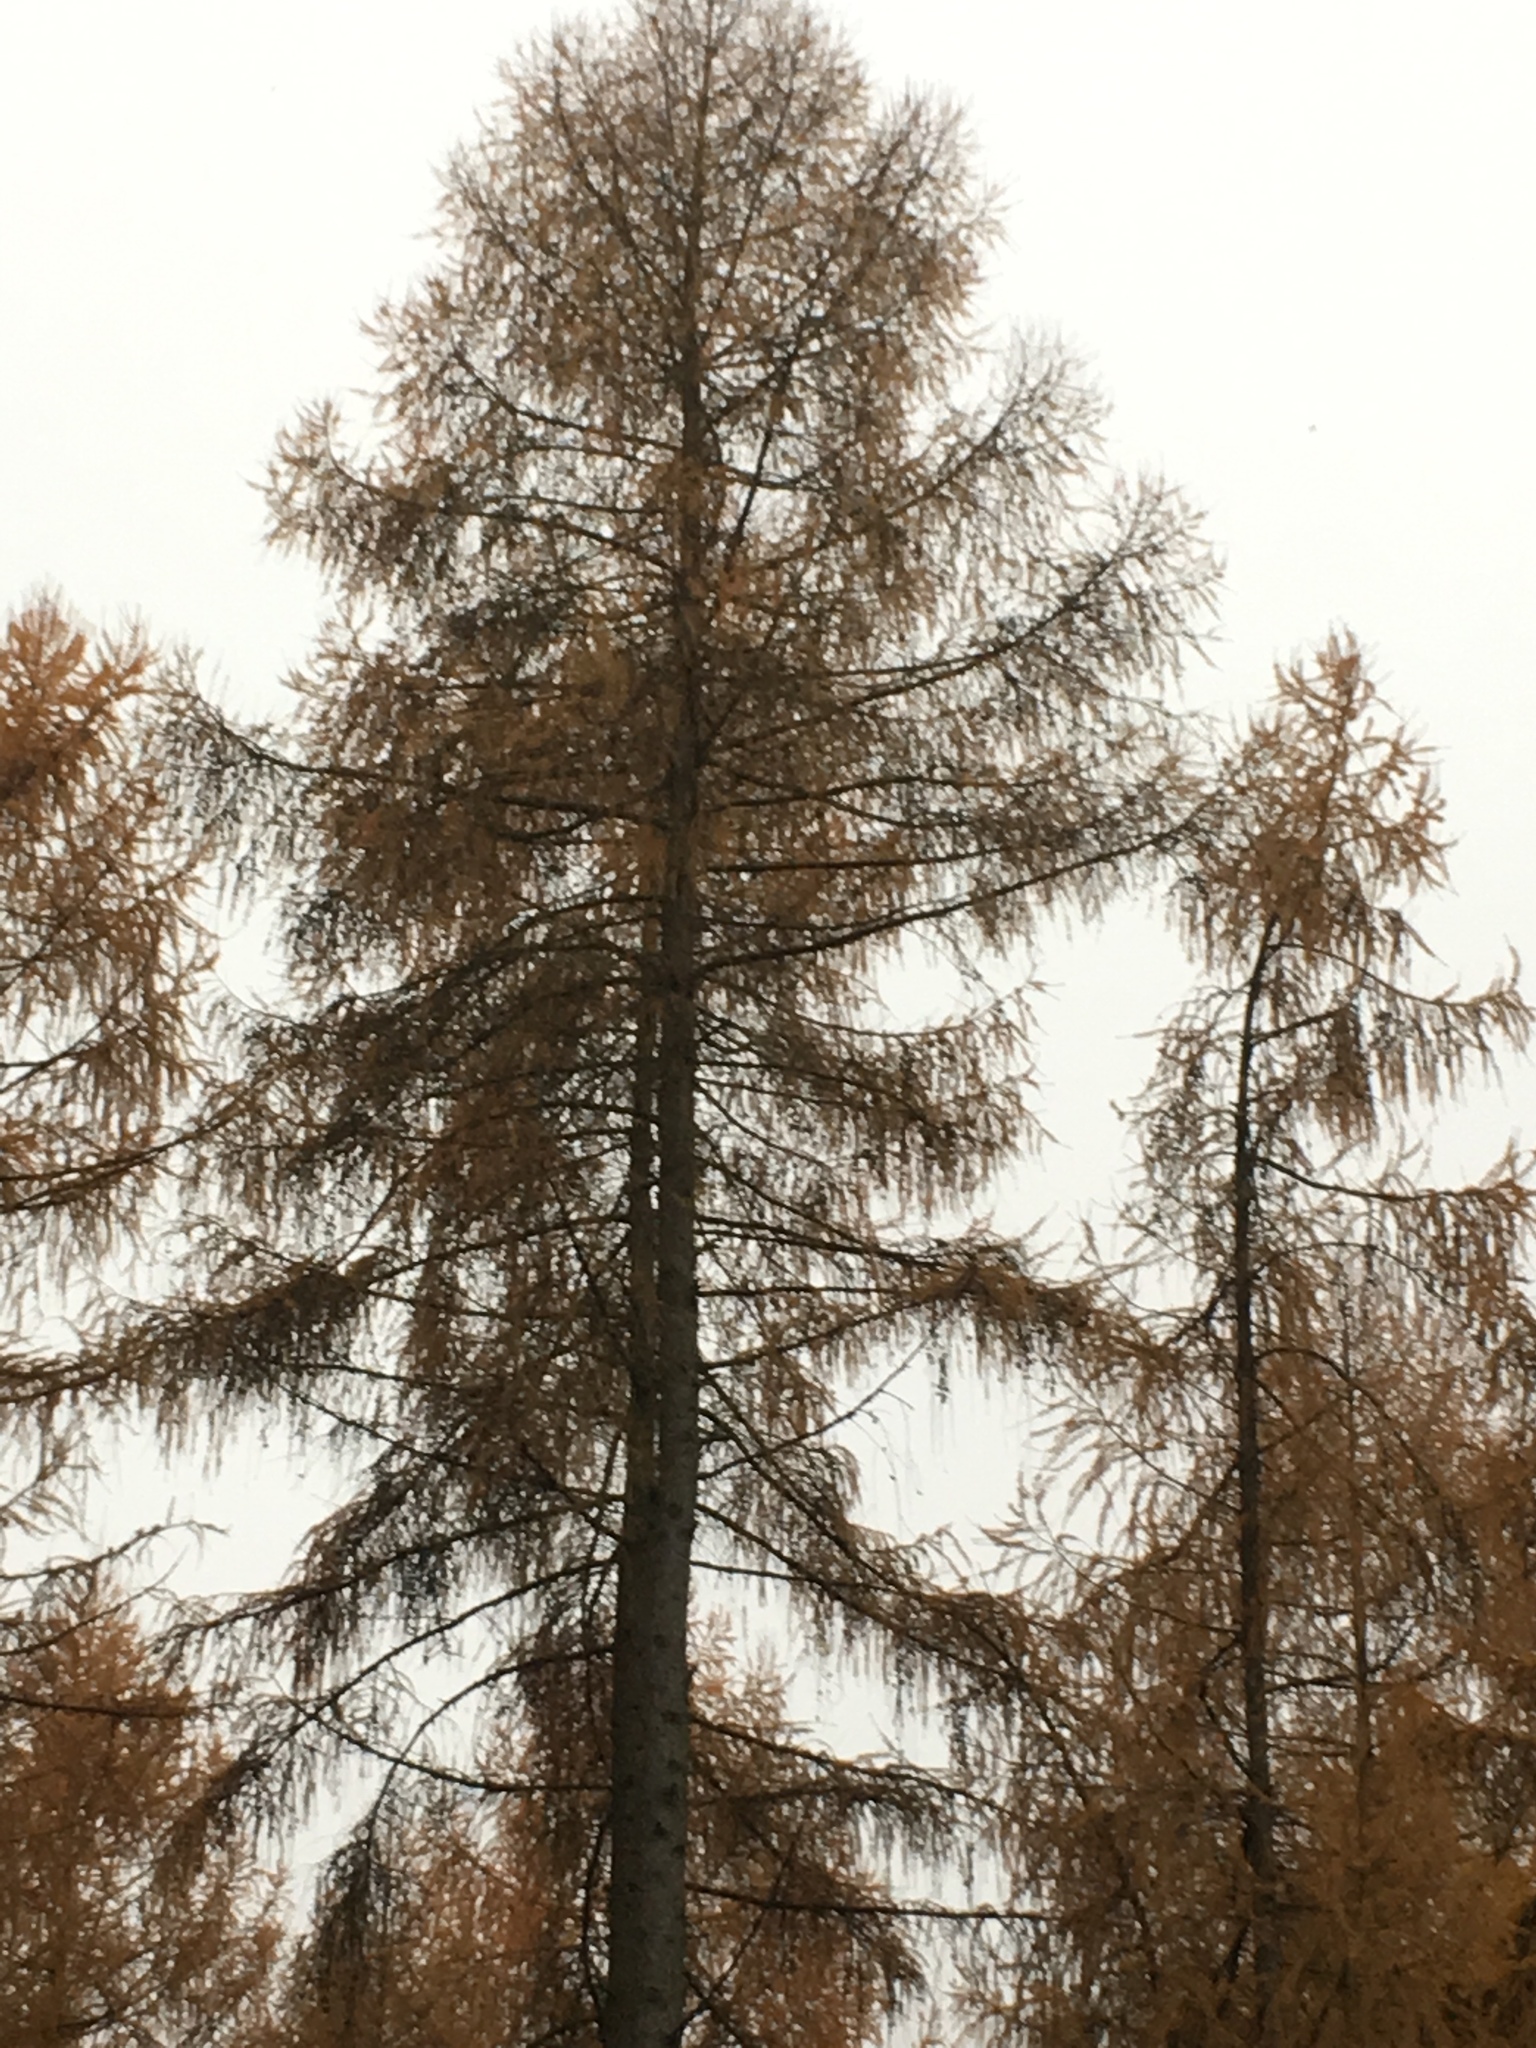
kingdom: Plantae
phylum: Tracheophyta
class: Pinopsida
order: Pinales
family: Pinaceae
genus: Larix
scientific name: Larix decidua
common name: European larch
